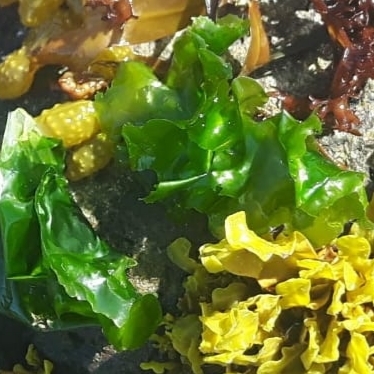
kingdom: Plantae
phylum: Chlorophyta
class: Ulvophyceae
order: Ulvales
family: Ulvaceae
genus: Ulva
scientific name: Ulva lactuca
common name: Sea lettuce
